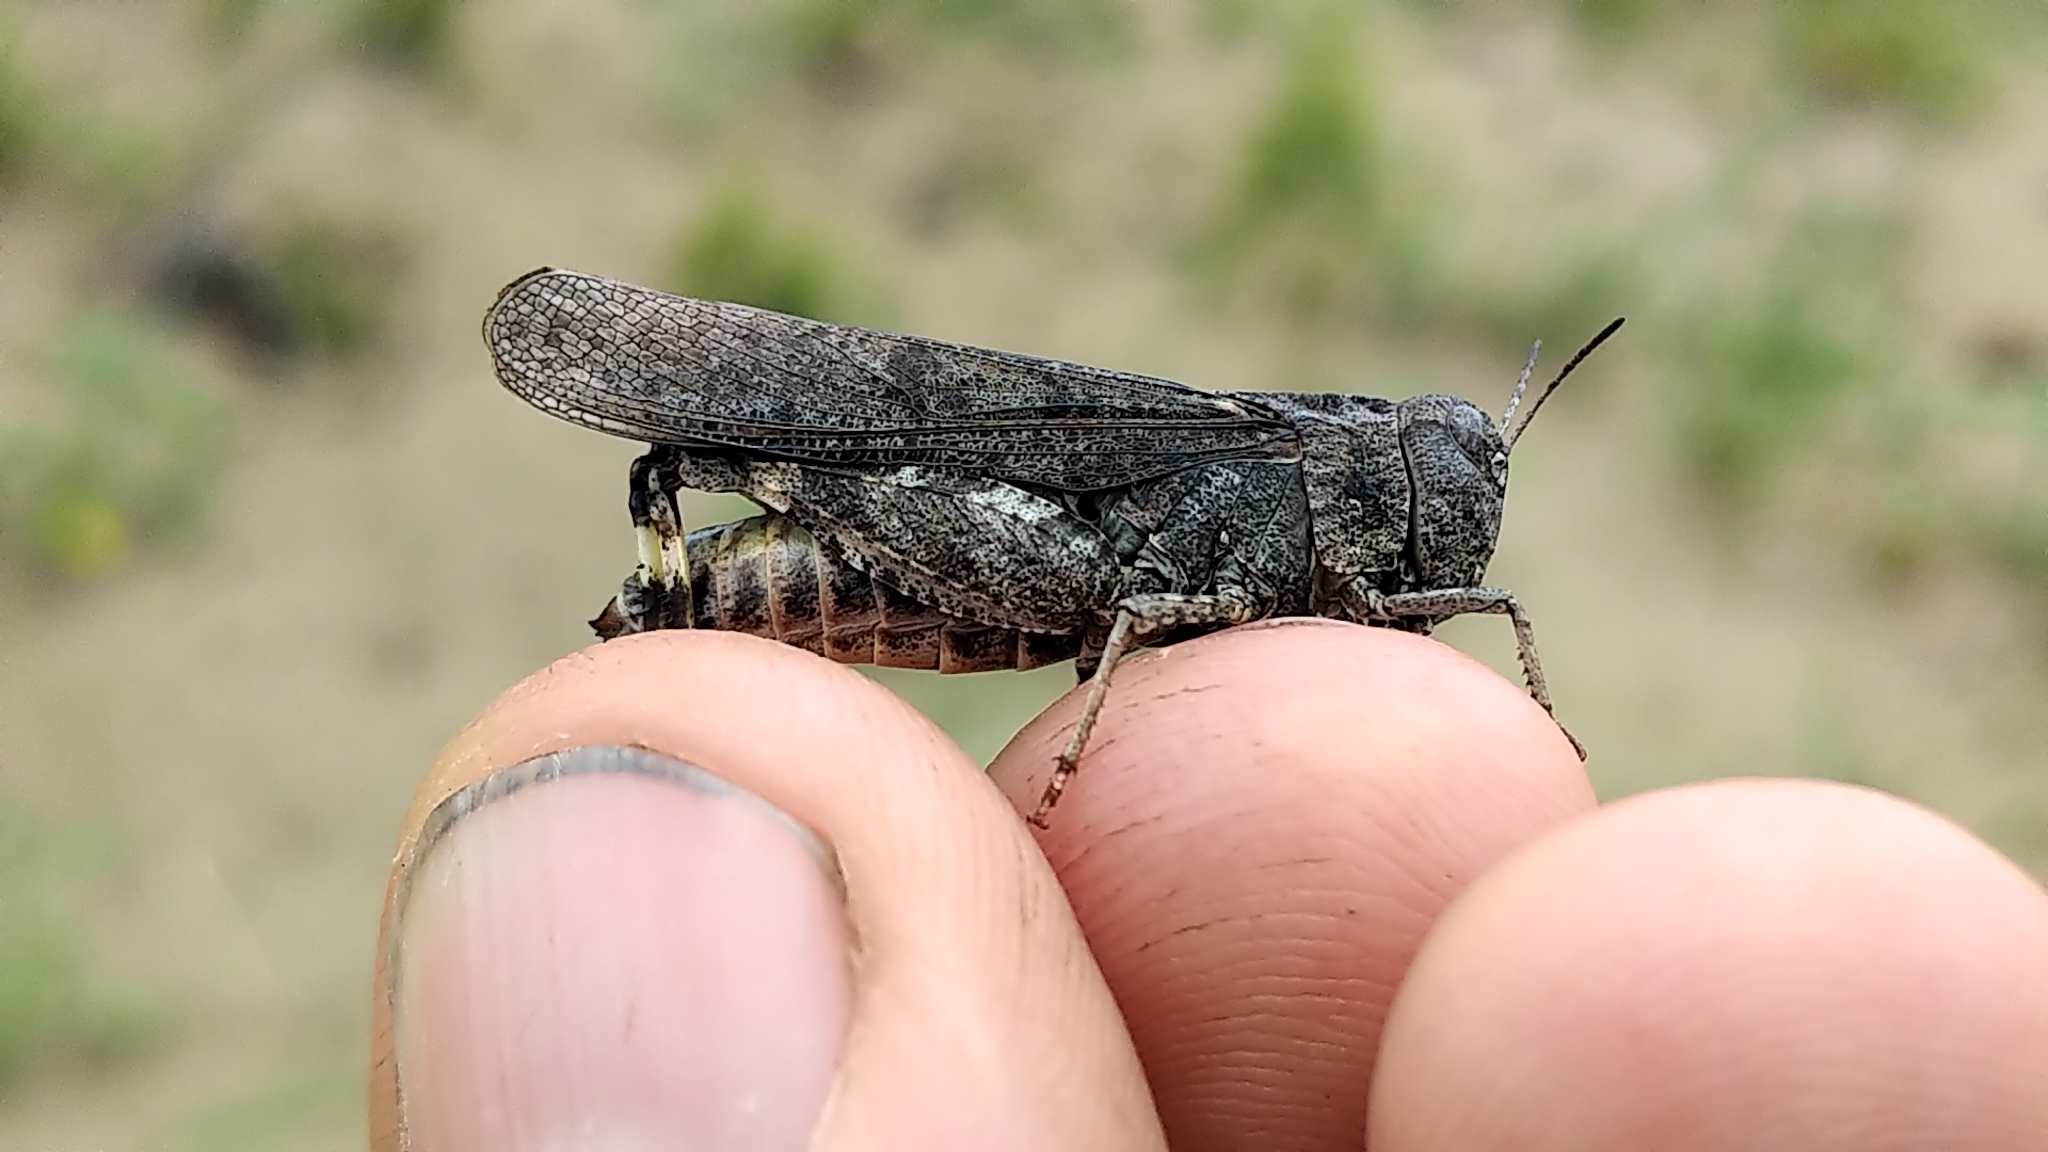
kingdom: Animalia
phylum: Arthropoda
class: Insecta
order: Orthoptera
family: Acrididae
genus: Arphia
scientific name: Arphia conspersa
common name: Speckle-winged rangeland grasshopper
